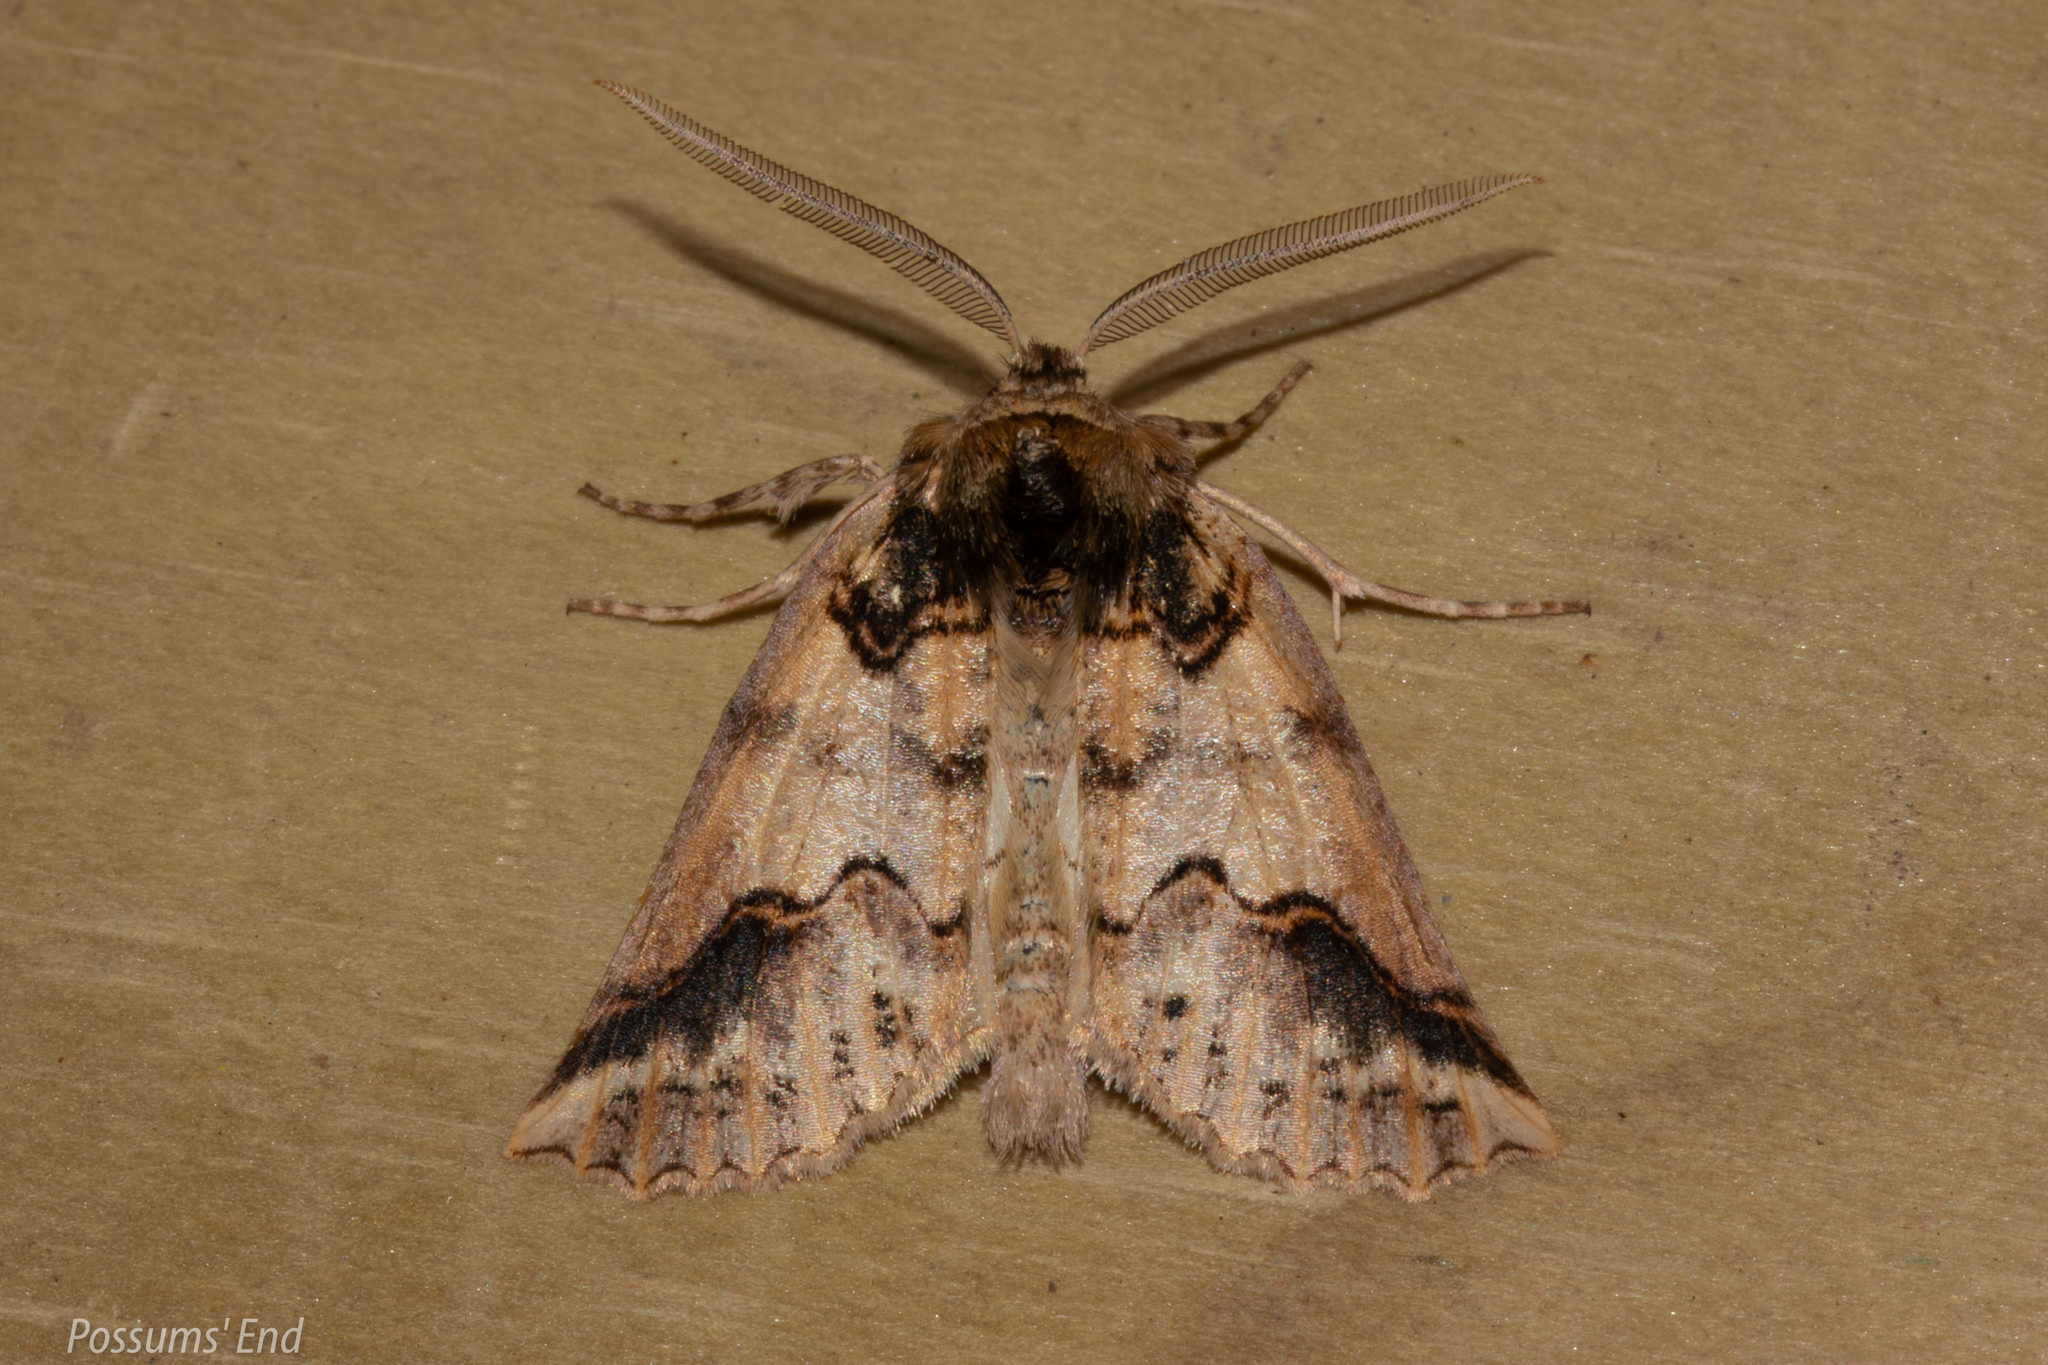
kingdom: Animalia
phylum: Arthropoda
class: Insecta
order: Lepidoptera
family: Geometridae
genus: Declana
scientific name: Declana
